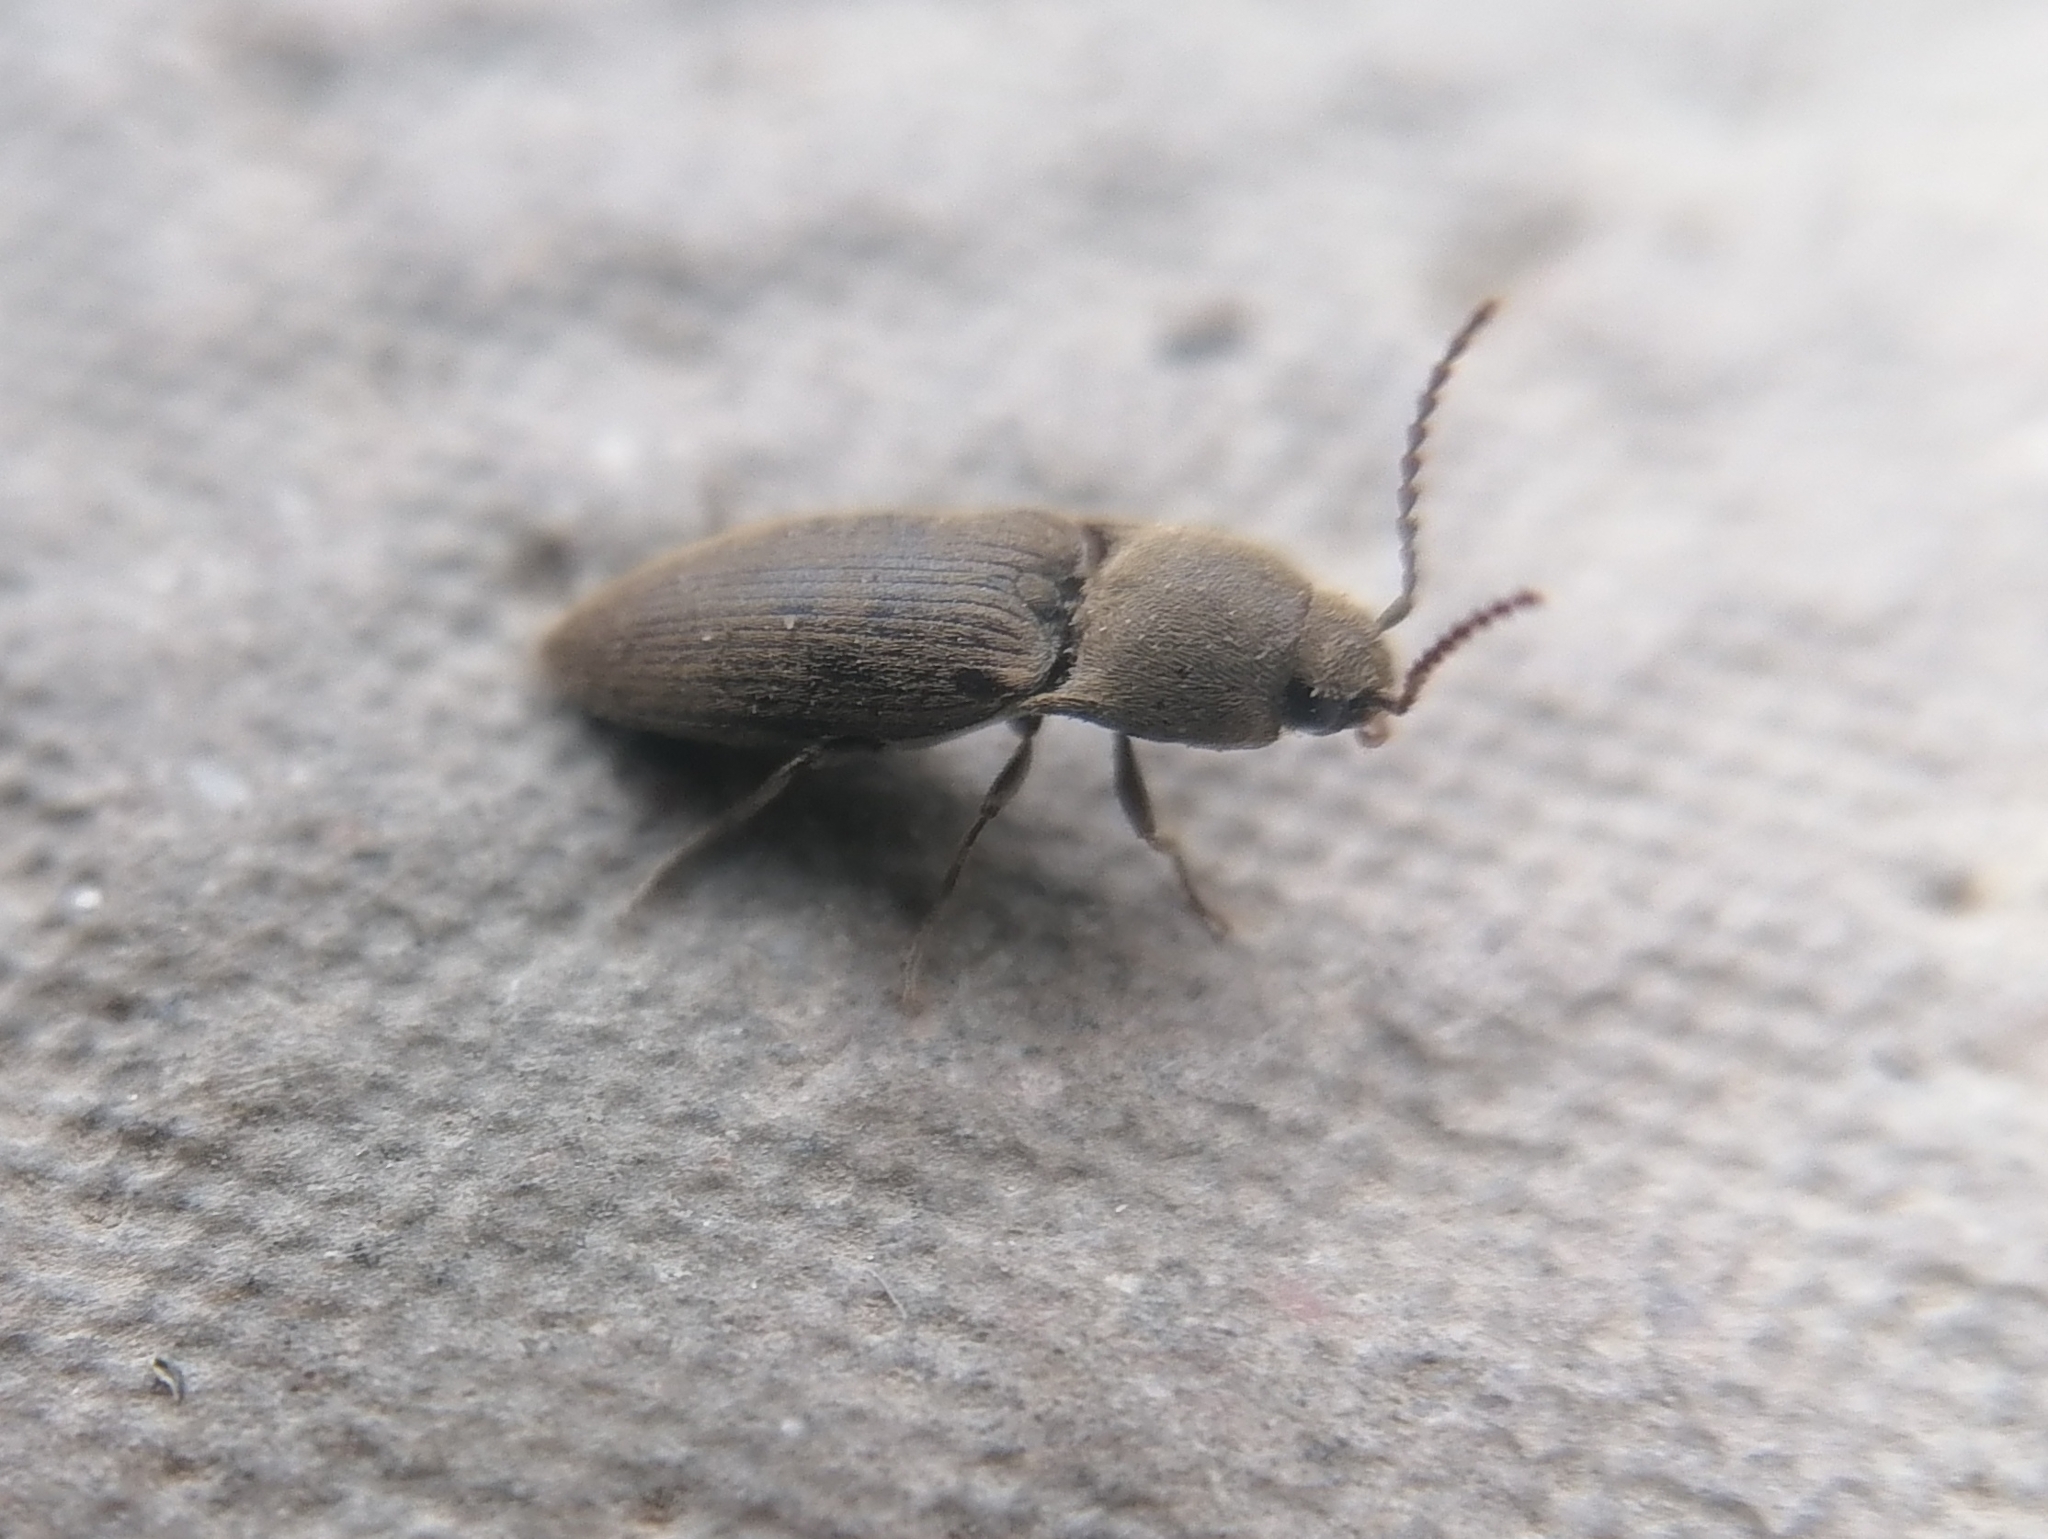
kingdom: Animalia
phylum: Arthropoda
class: Insecta
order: Coleoptera
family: Elateridae
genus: Agriotes
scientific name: Agriotes obscurus
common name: Dusky wireworm
